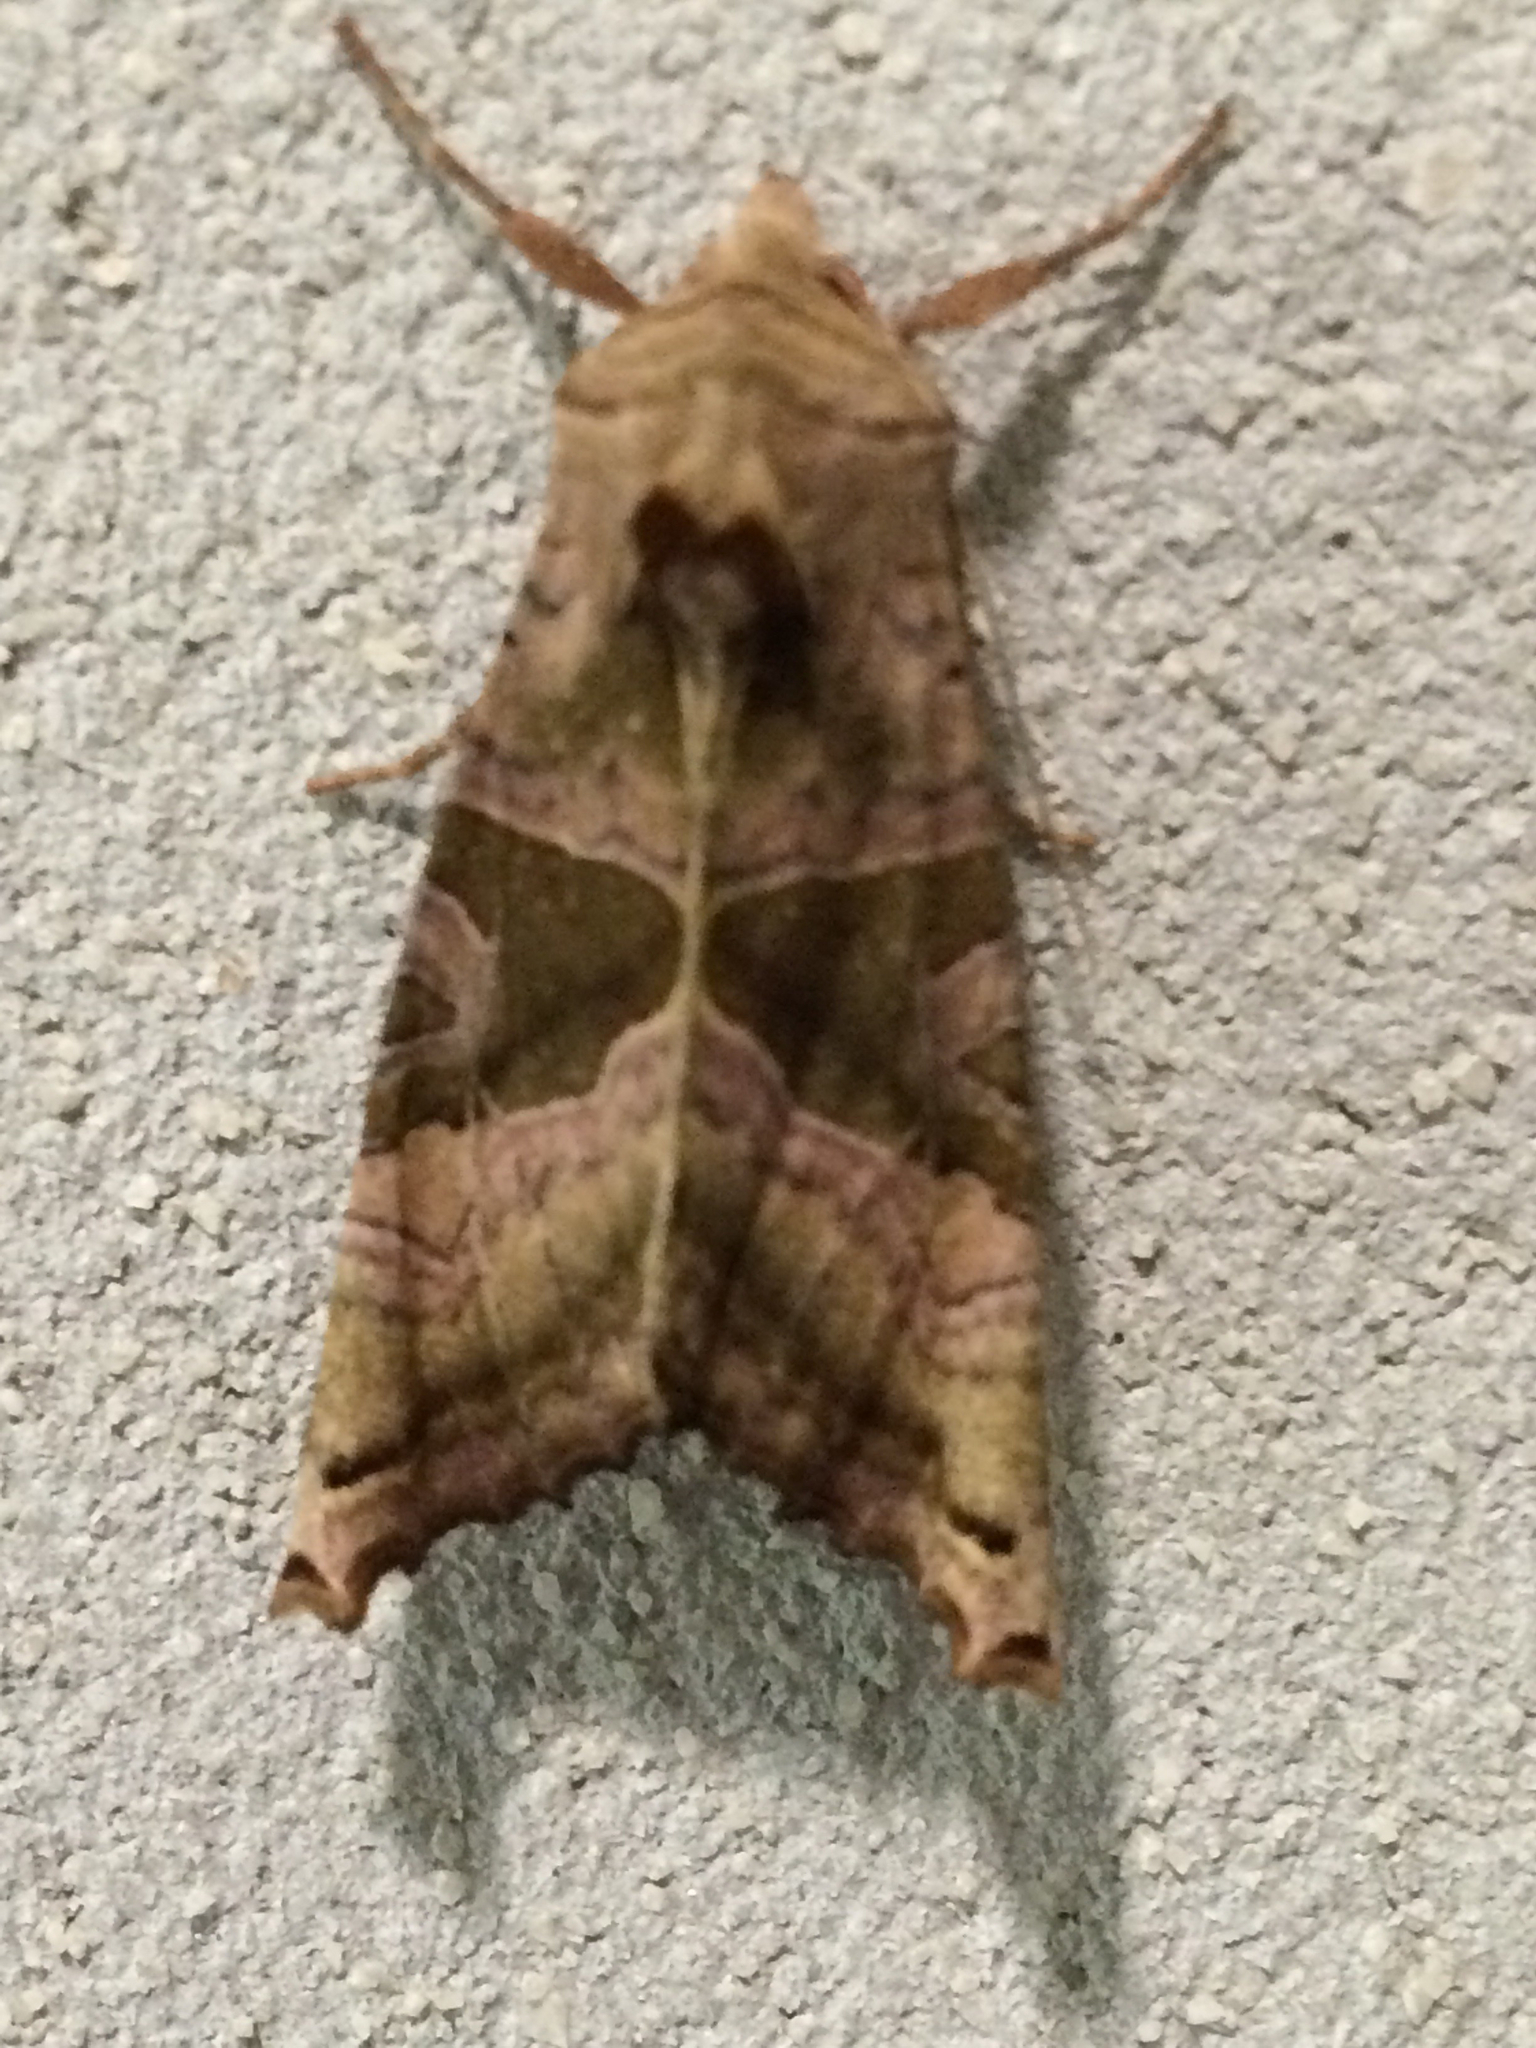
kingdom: Animalia
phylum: Arthropoda
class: Insecta
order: Lepidoptera
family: Noctuidae
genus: Phlogophora
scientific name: Phlogophora periculosa
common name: Brown angle shades
